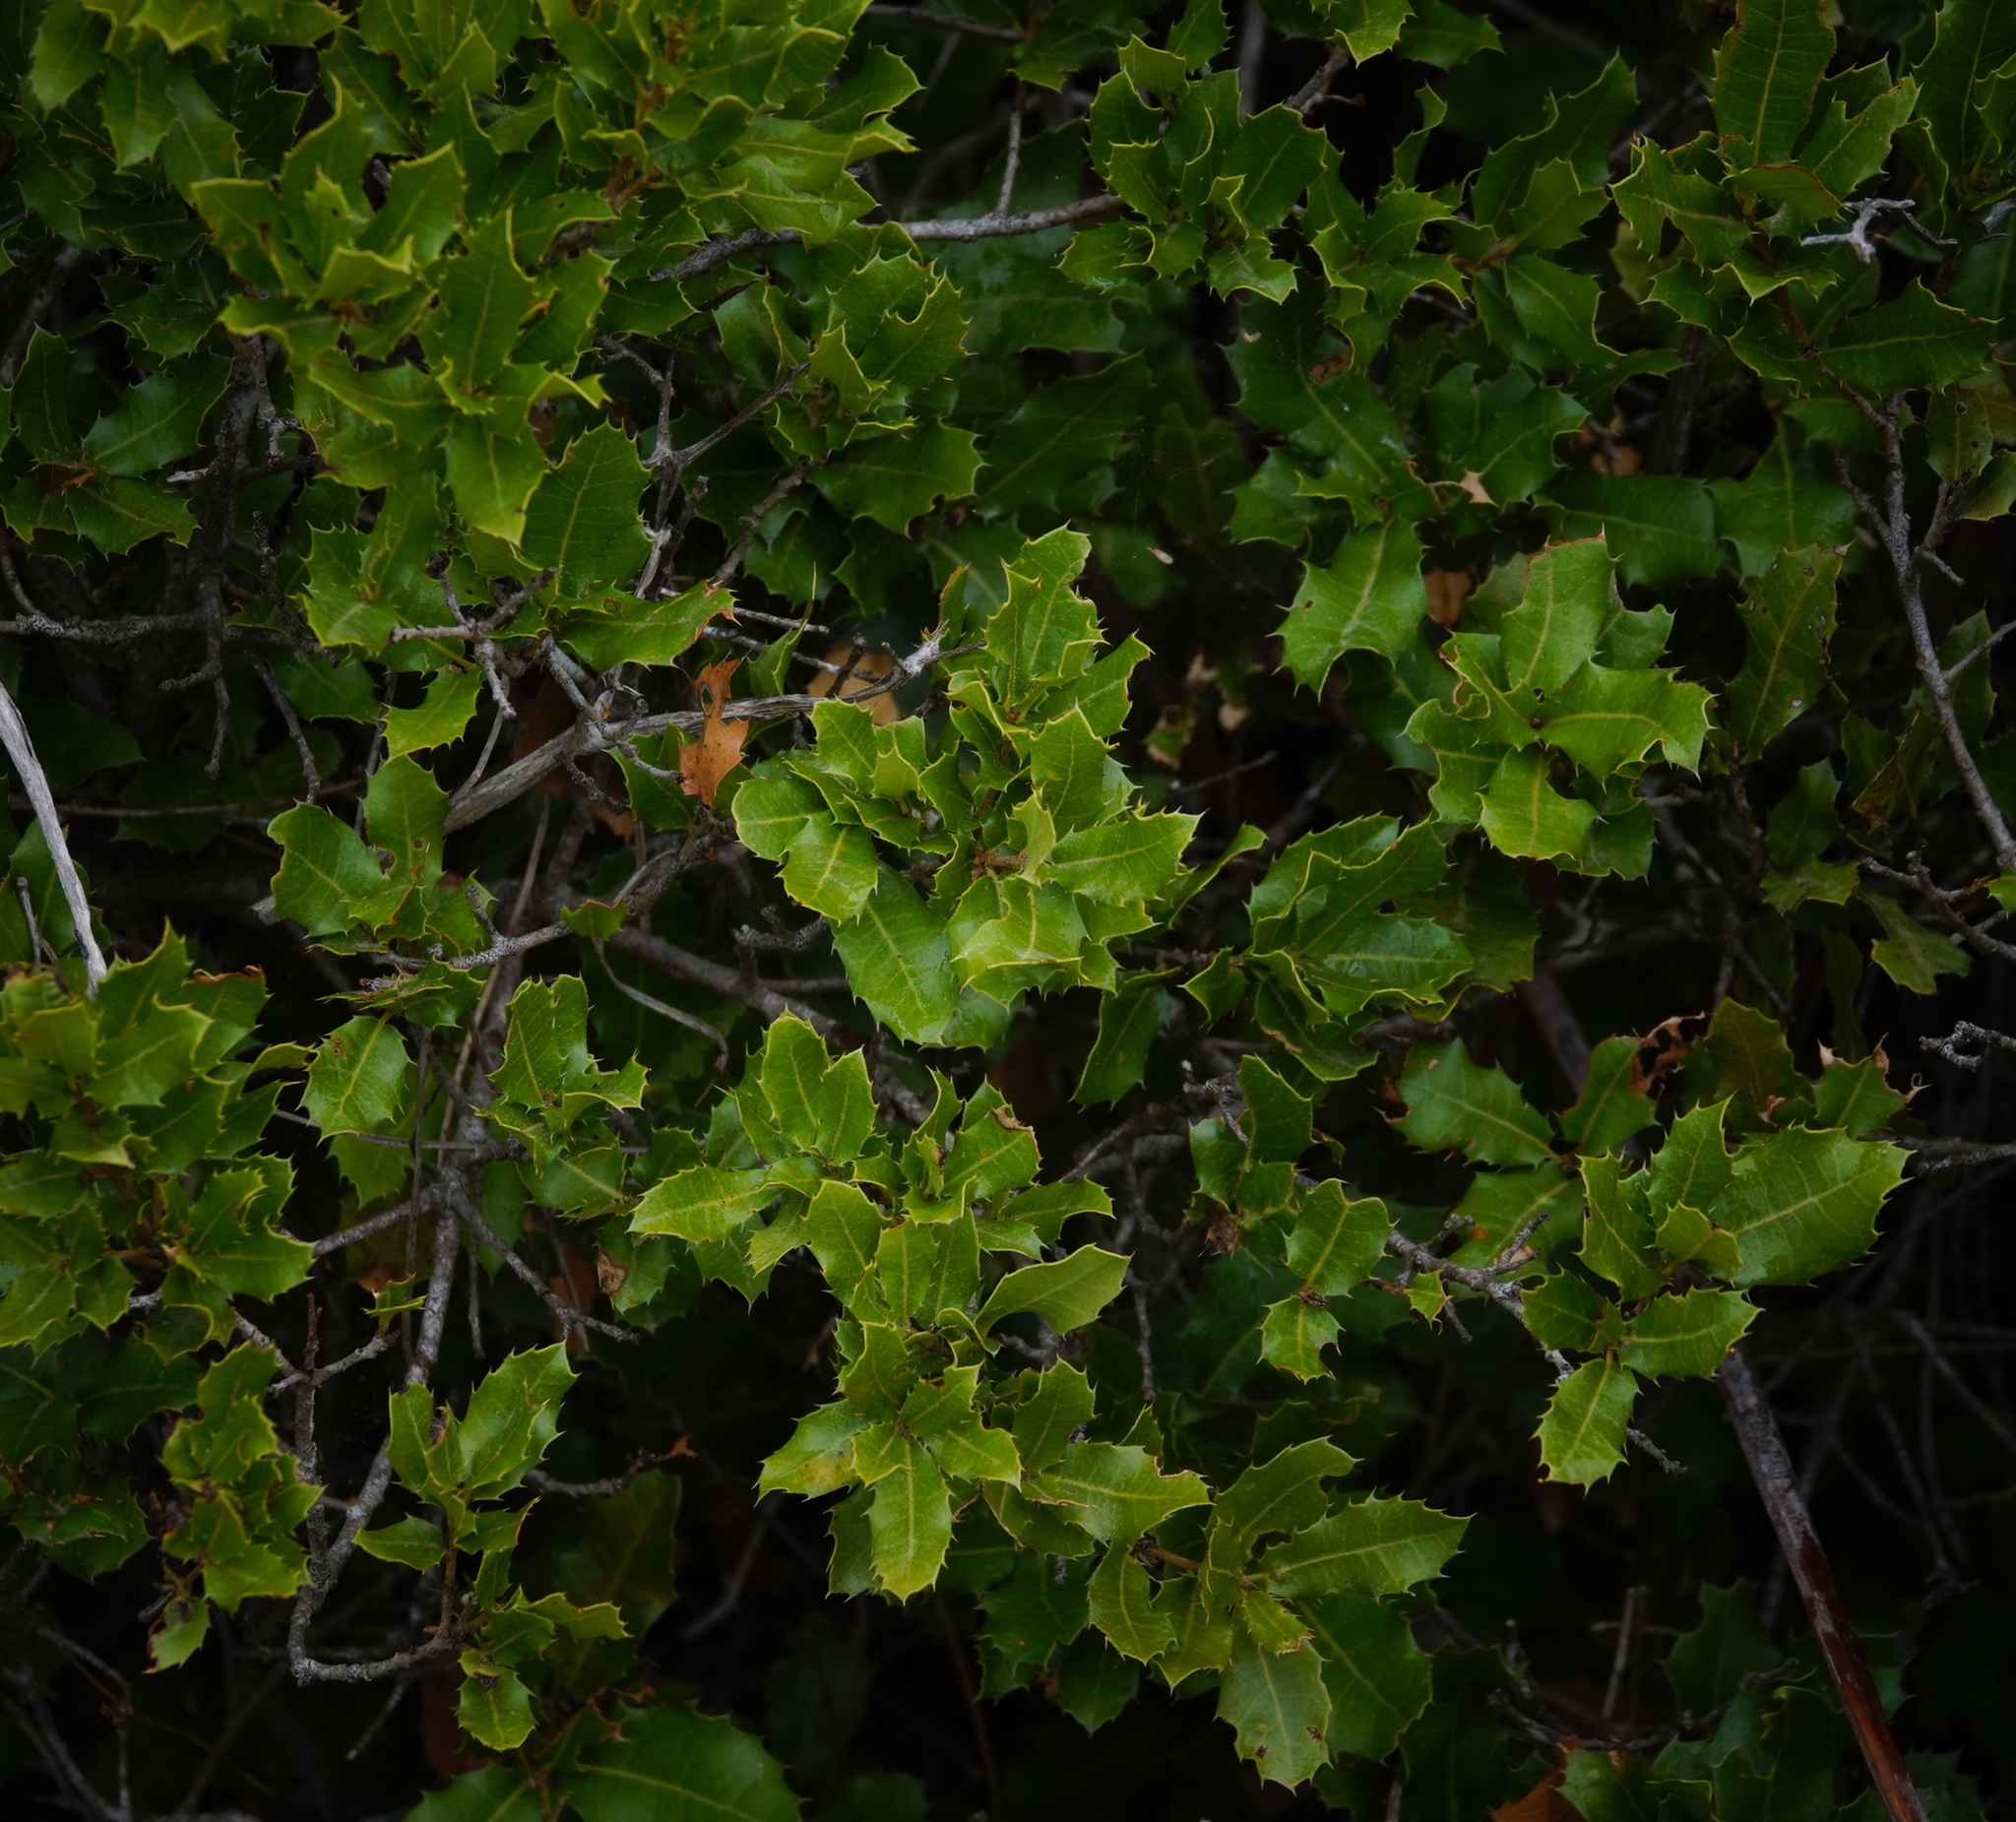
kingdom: Plantae
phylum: Tracheophyta
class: Magnoliopsida
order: Fagales
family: Fagaceae
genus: Quercus
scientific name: Quercus coccifera
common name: Kermes oak
